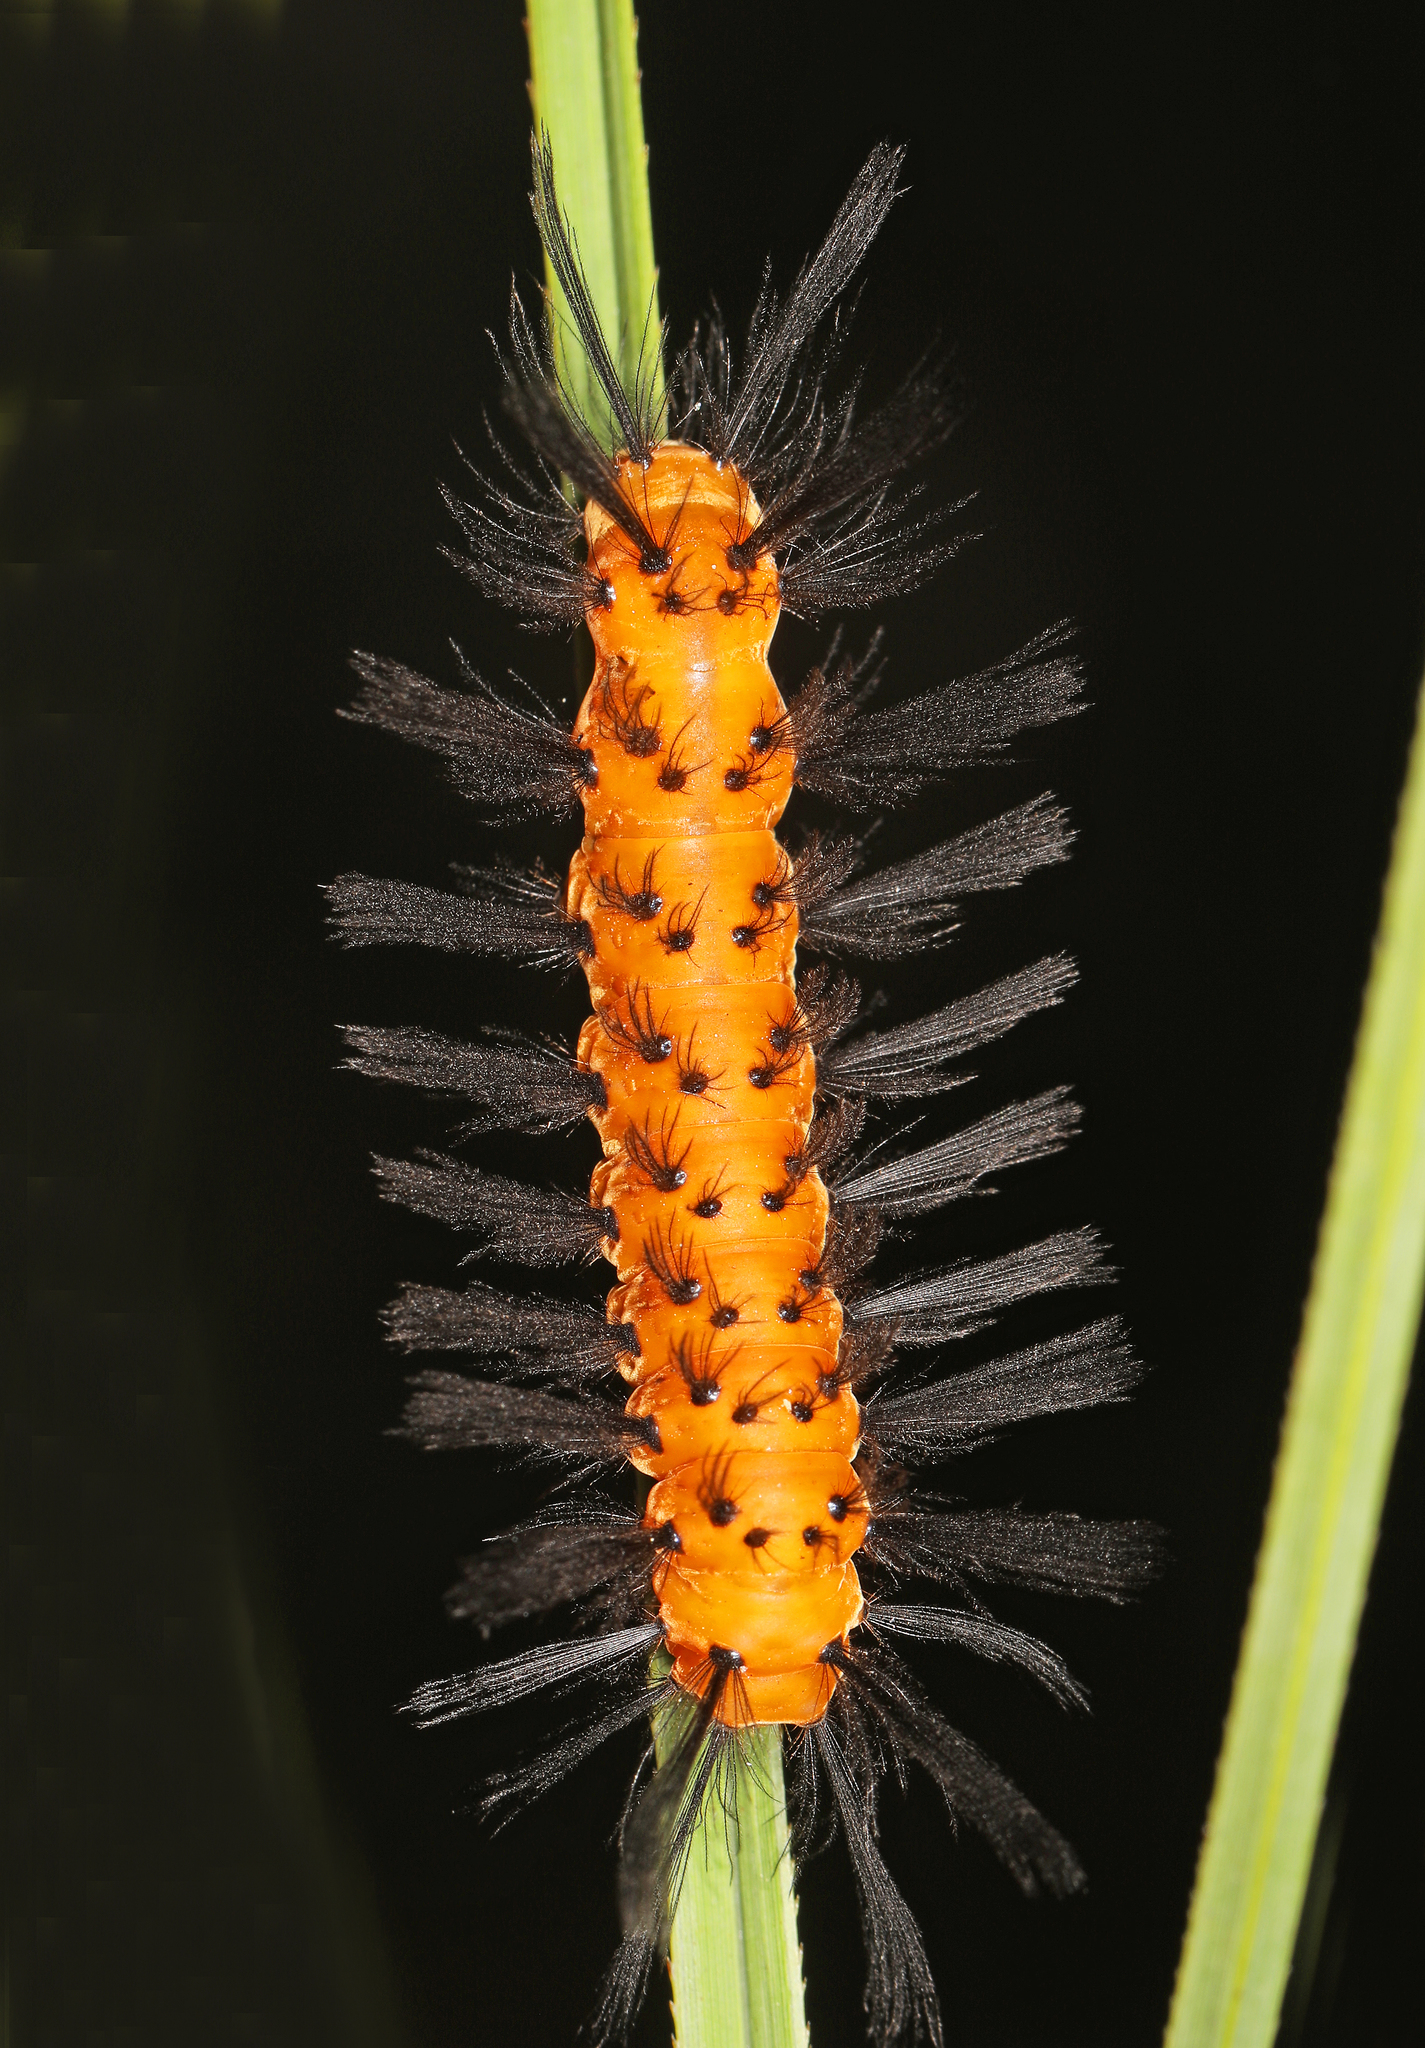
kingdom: Animalia
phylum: Arthropoda
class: Insecta
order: Lepidoptera
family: Erebidae
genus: Syntomeida
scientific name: Syntomeida epilais
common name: Polka-dot wasp moth
